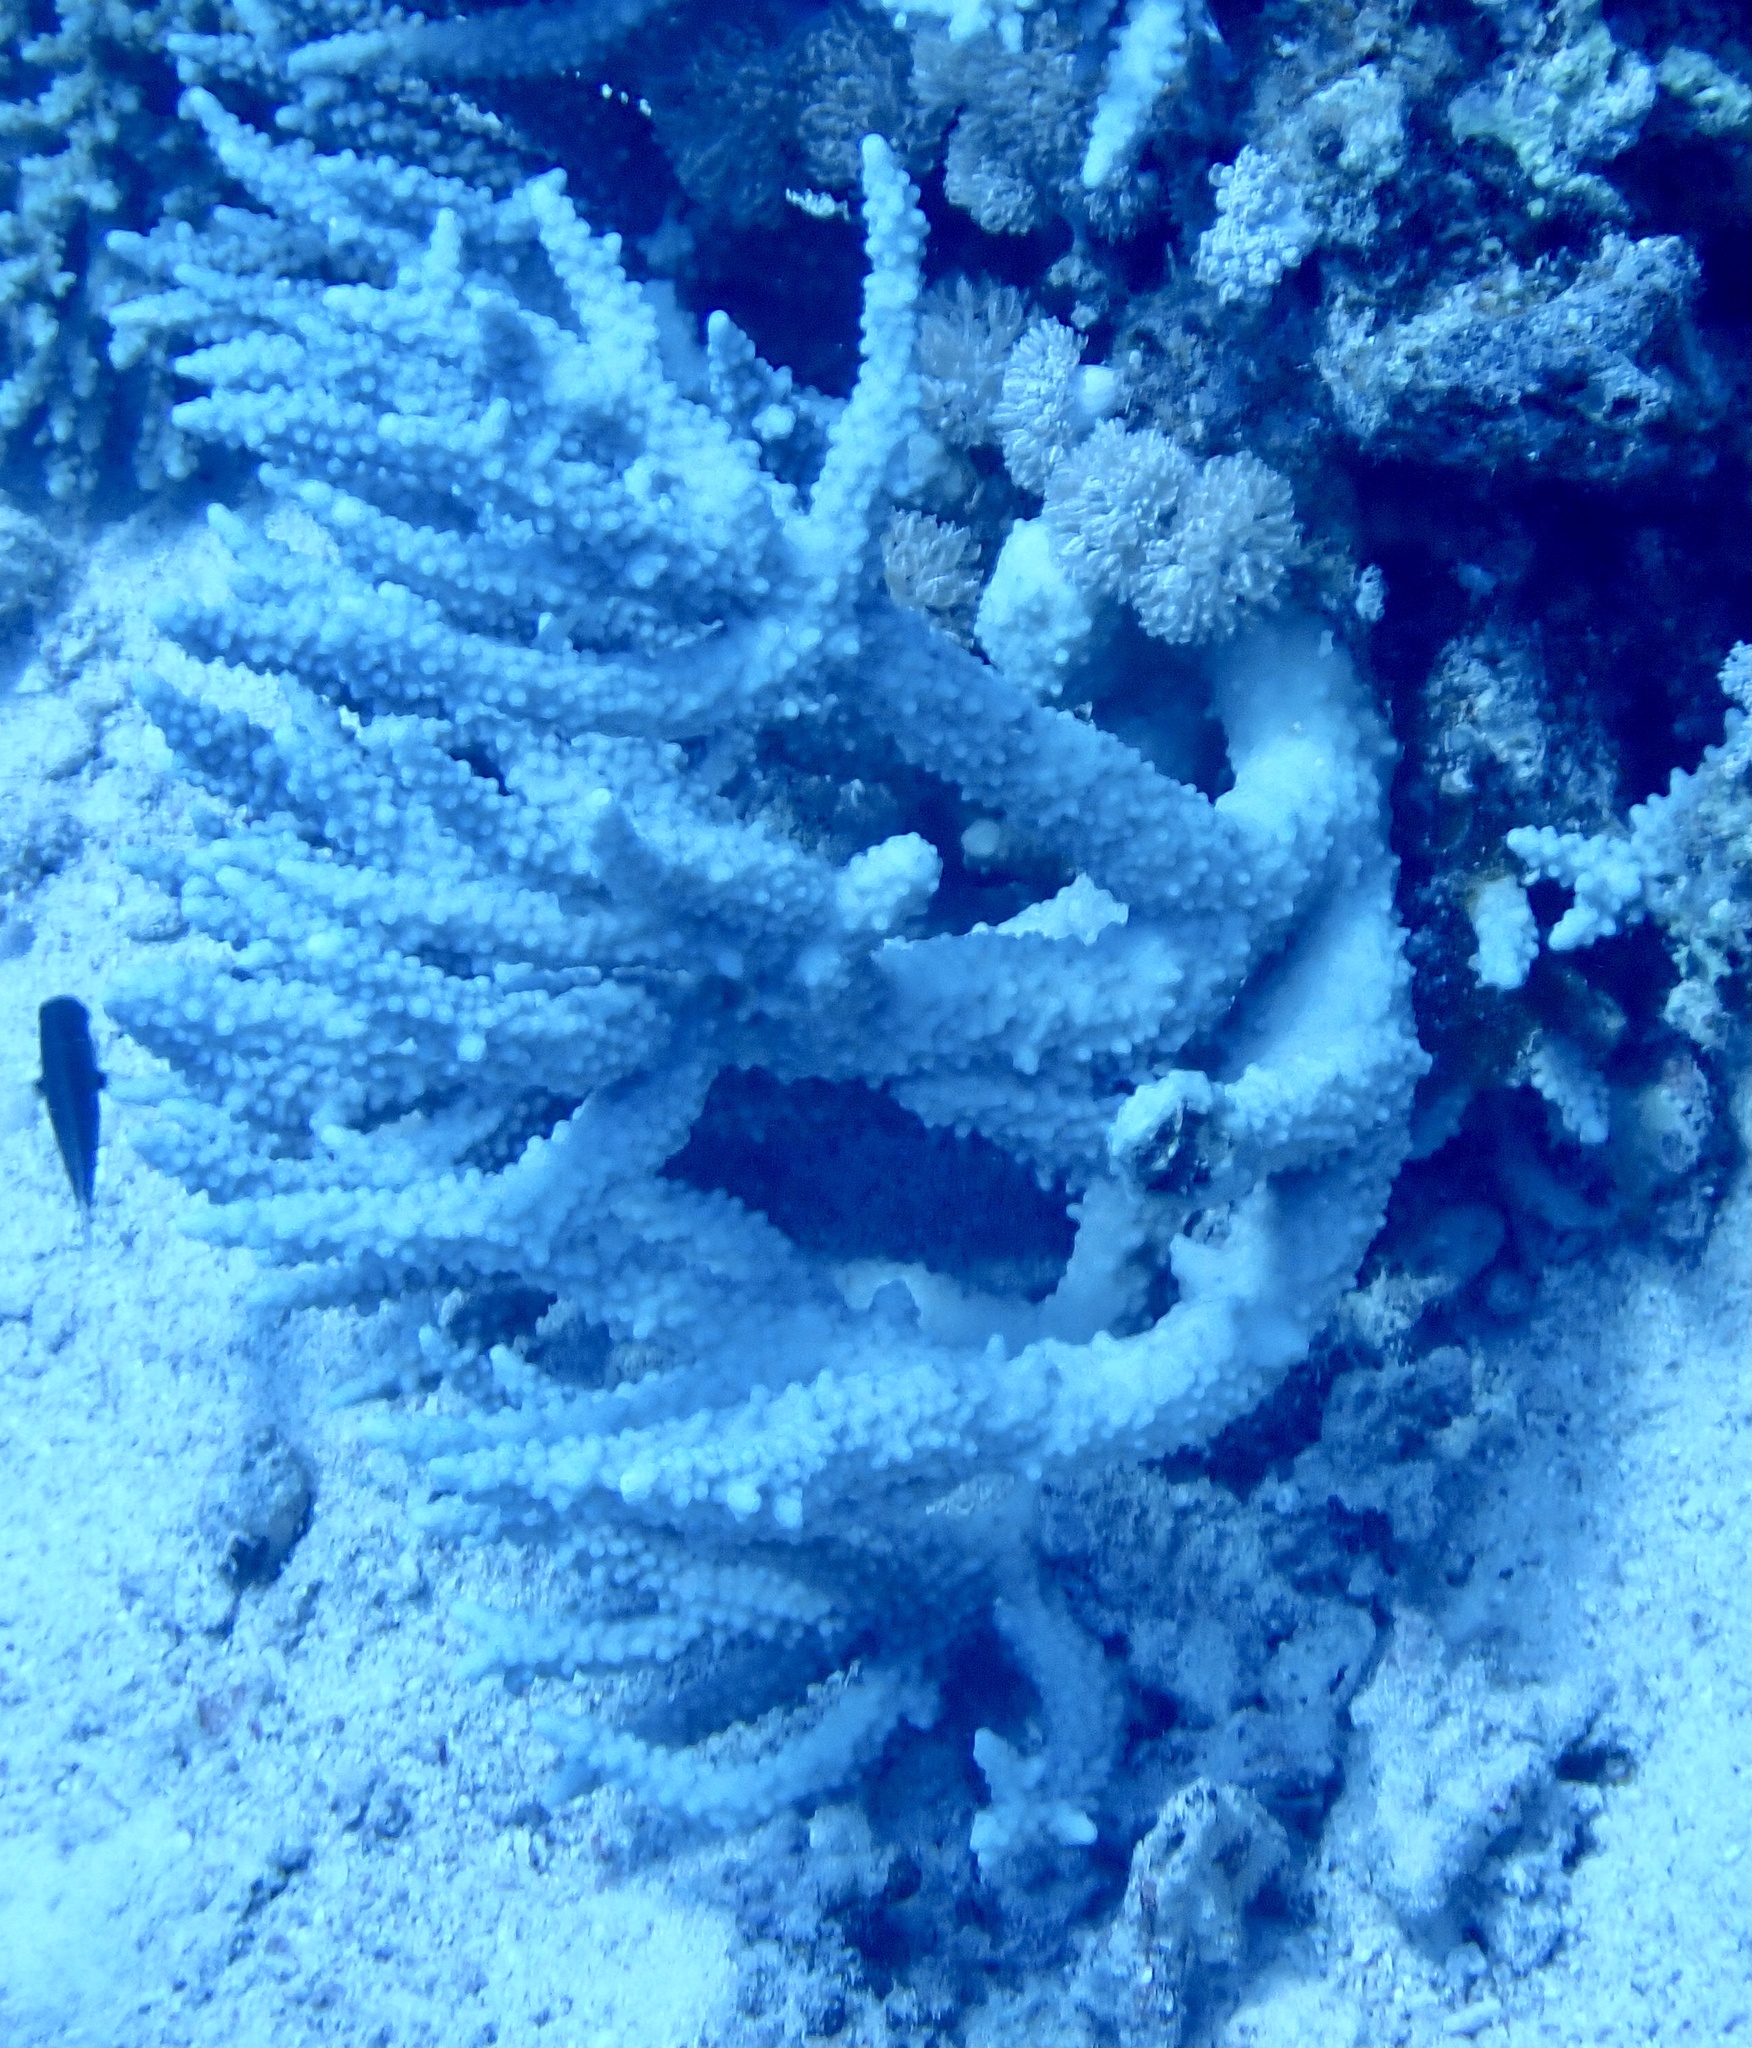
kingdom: Animalia
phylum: Cnidaria
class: Anthozoa
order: Scleractinia
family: Acroporidae
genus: Acropora
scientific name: Acropora hemprichii
